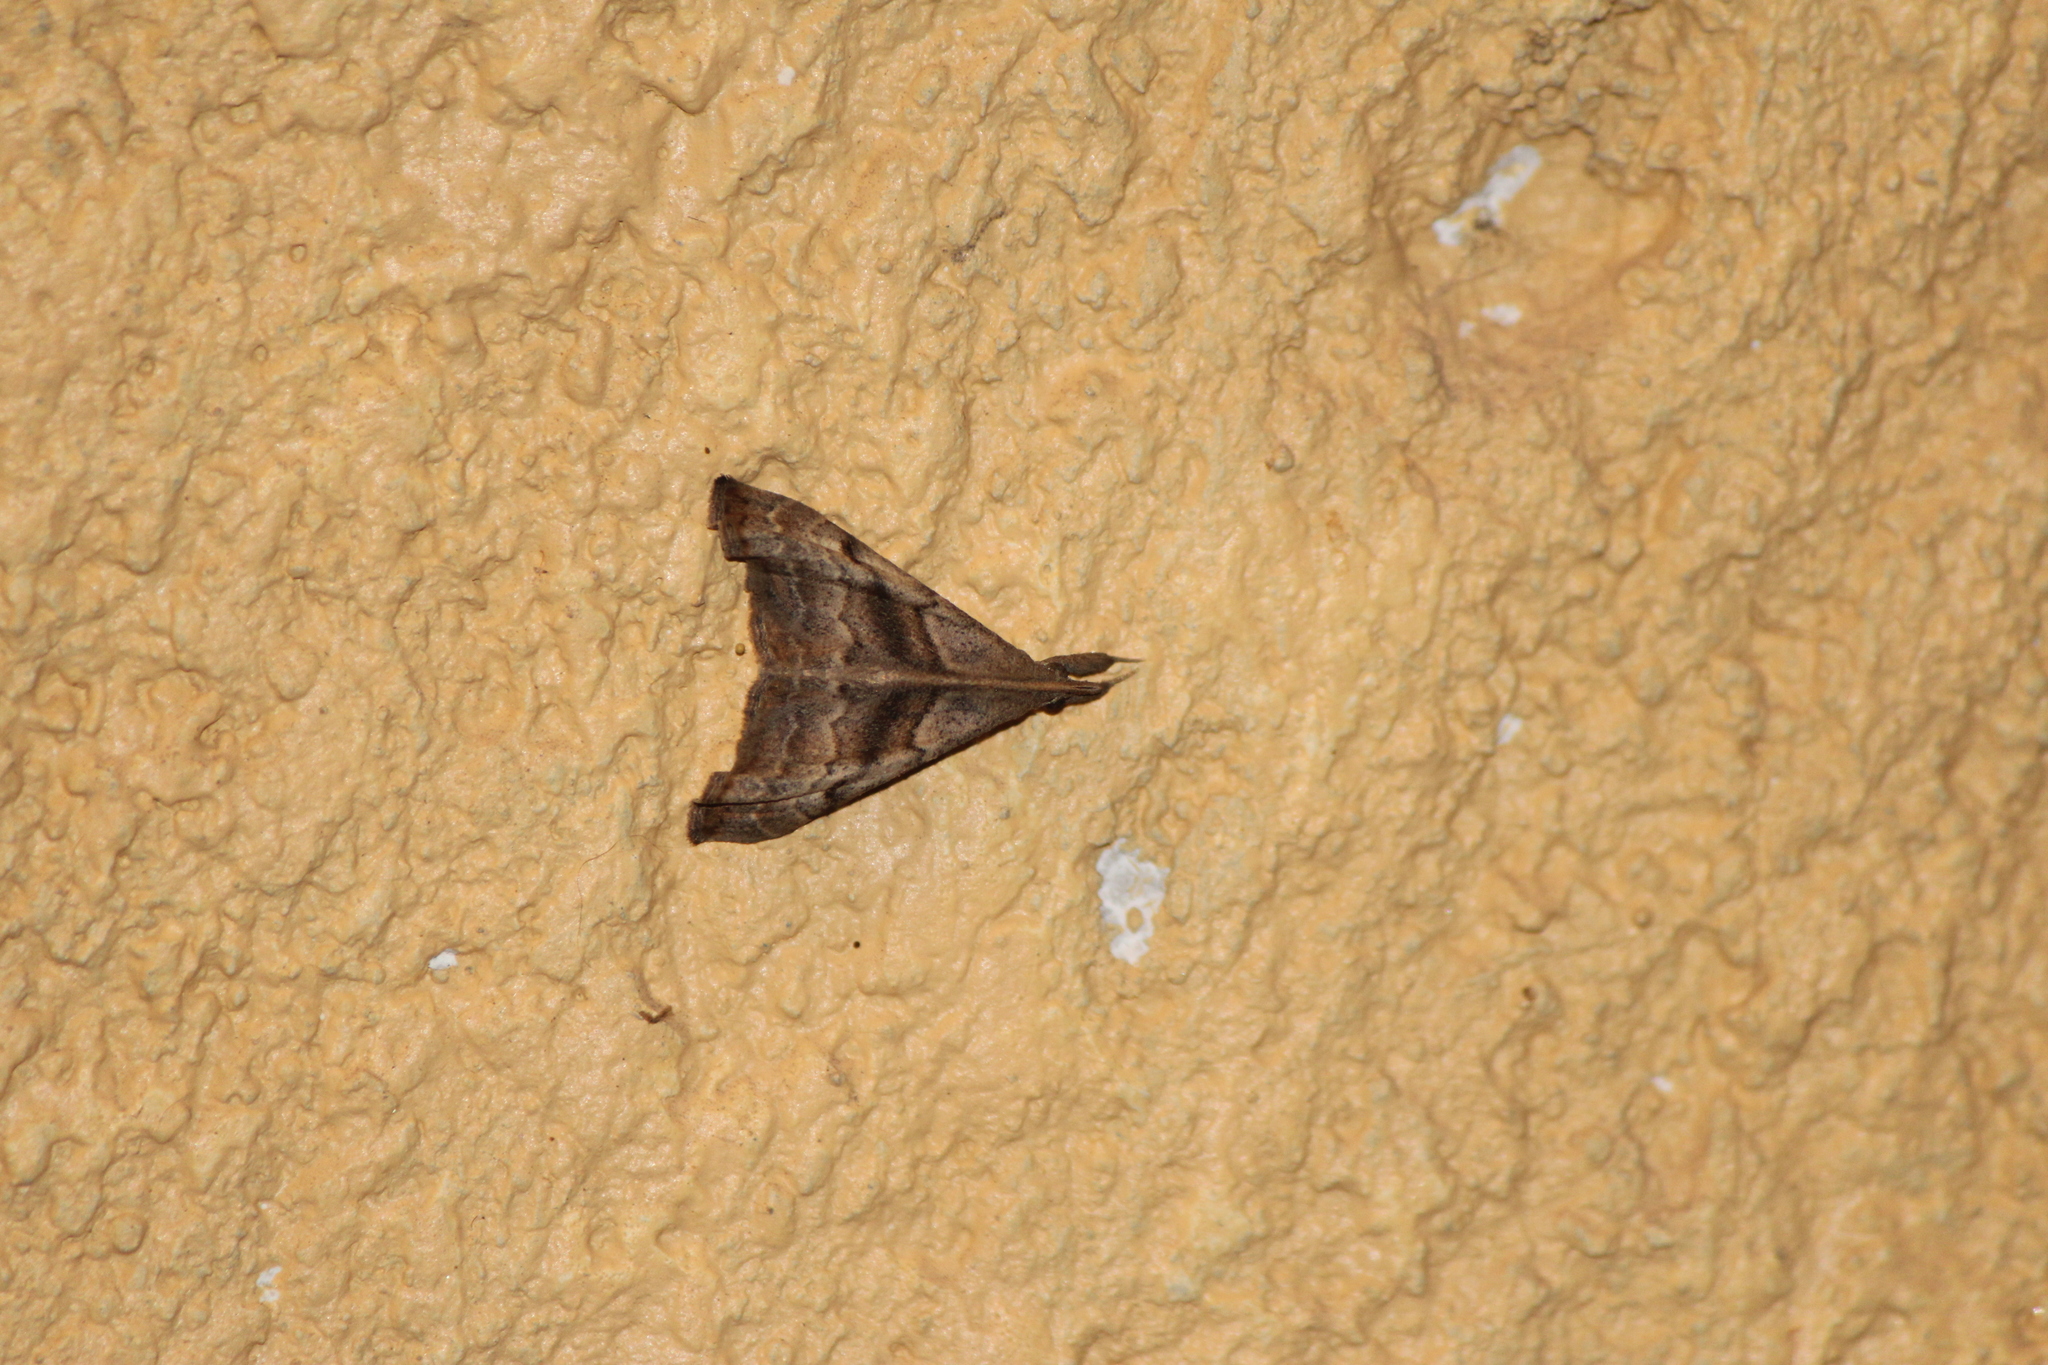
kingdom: Animalia
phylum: Arthropoda
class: Insecta
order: Lepidoptera
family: Erebidae
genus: Palthis
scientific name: Palthis angulalis
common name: Dark-spotted palthis moth
